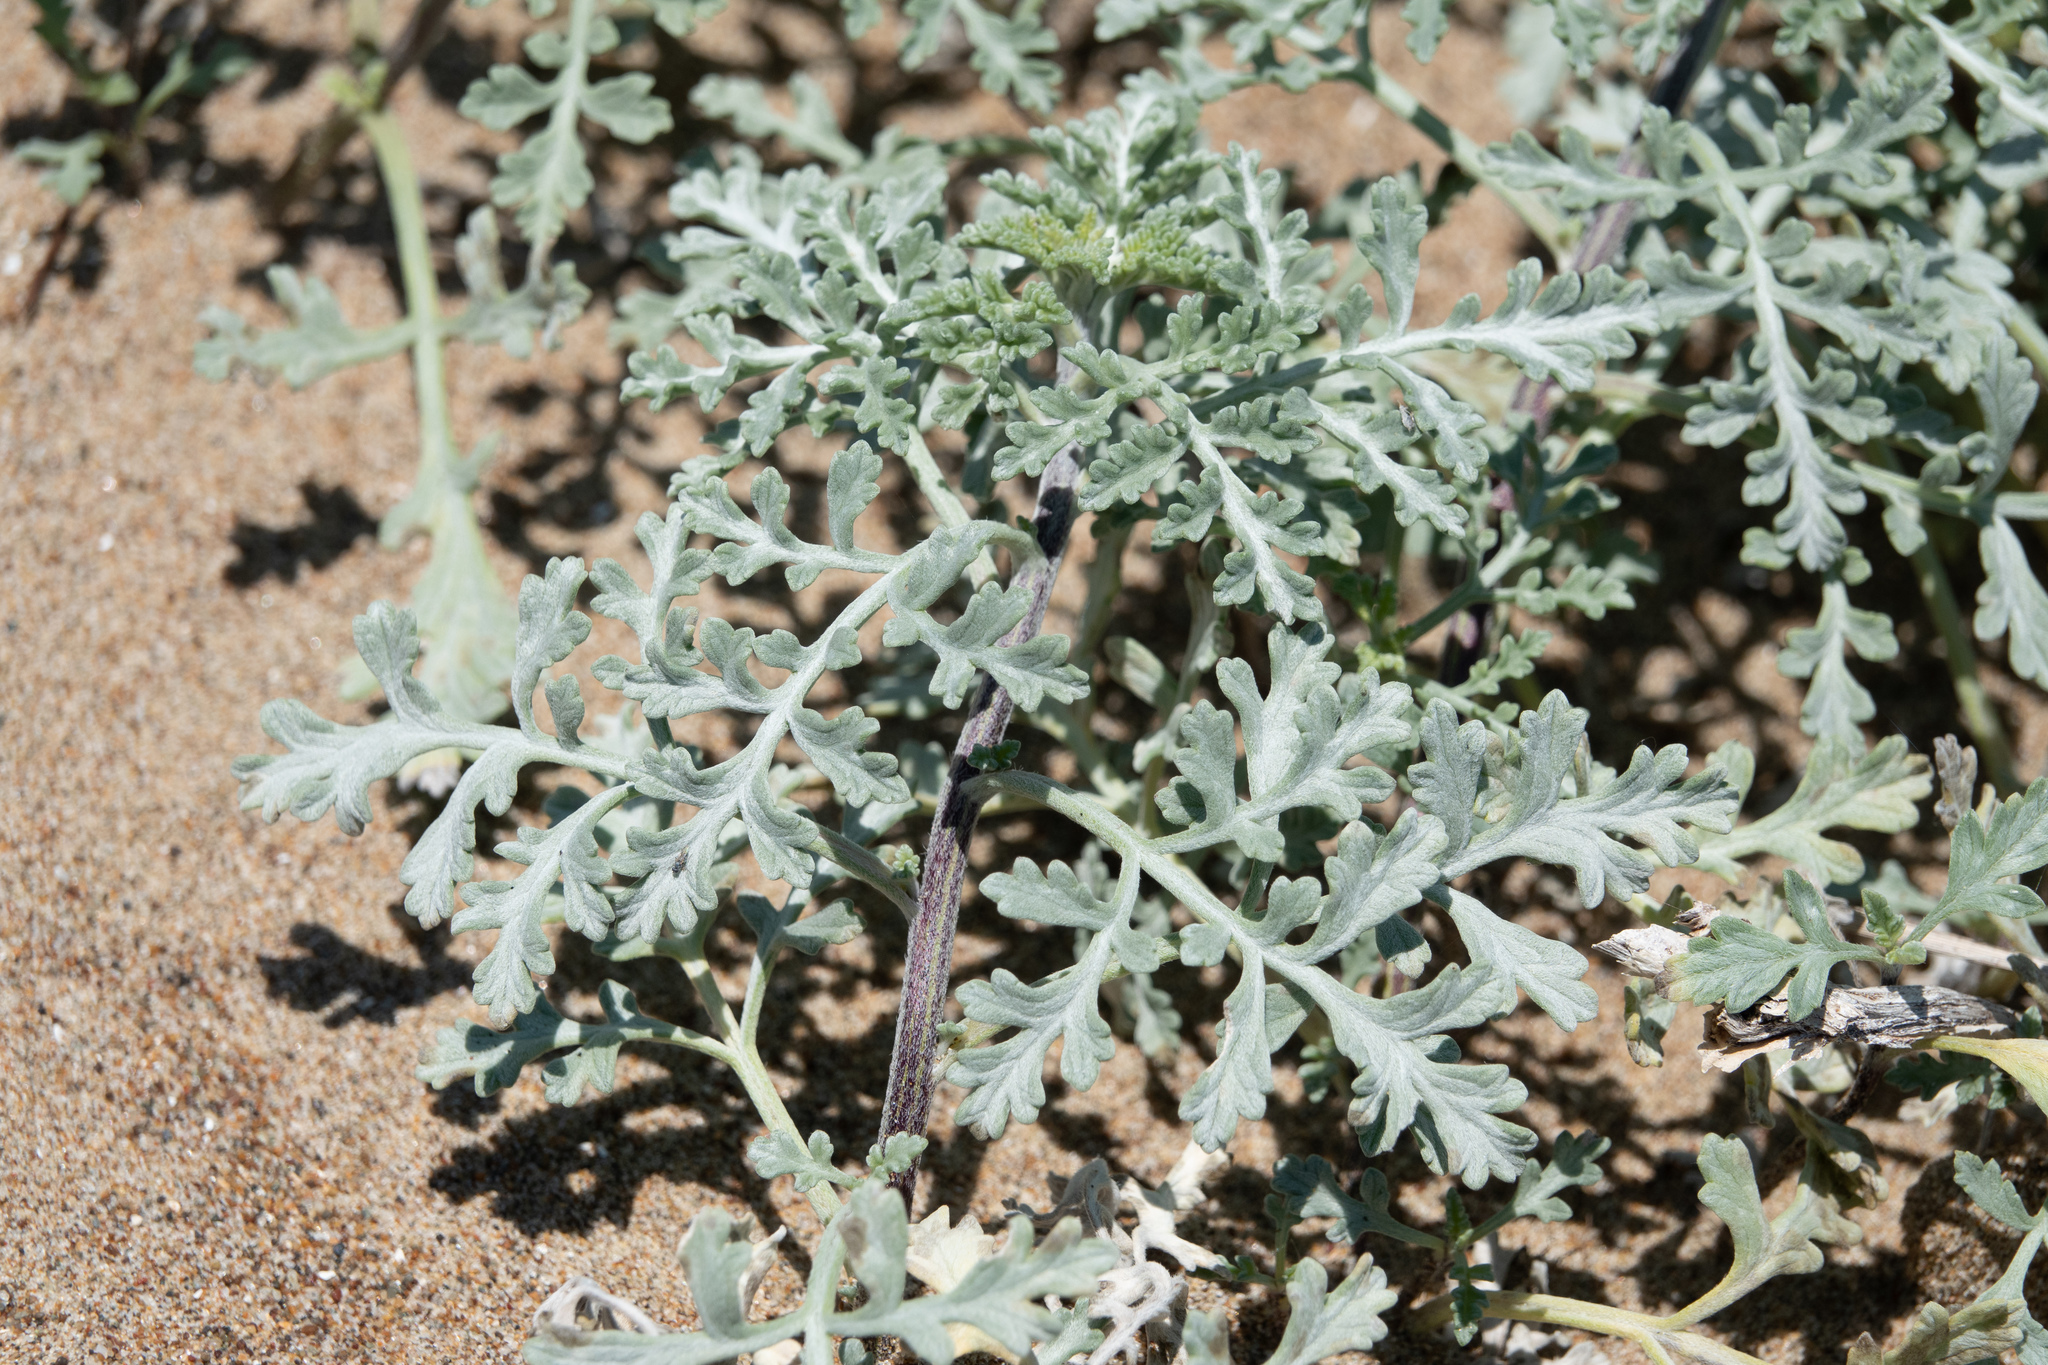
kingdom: Plantae
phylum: Tracheophyta
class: Magnoliopsida
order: Asterales
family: Asteraceae
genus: Ambrosia
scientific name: Ambrosia chamissonis
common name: Beachbur
